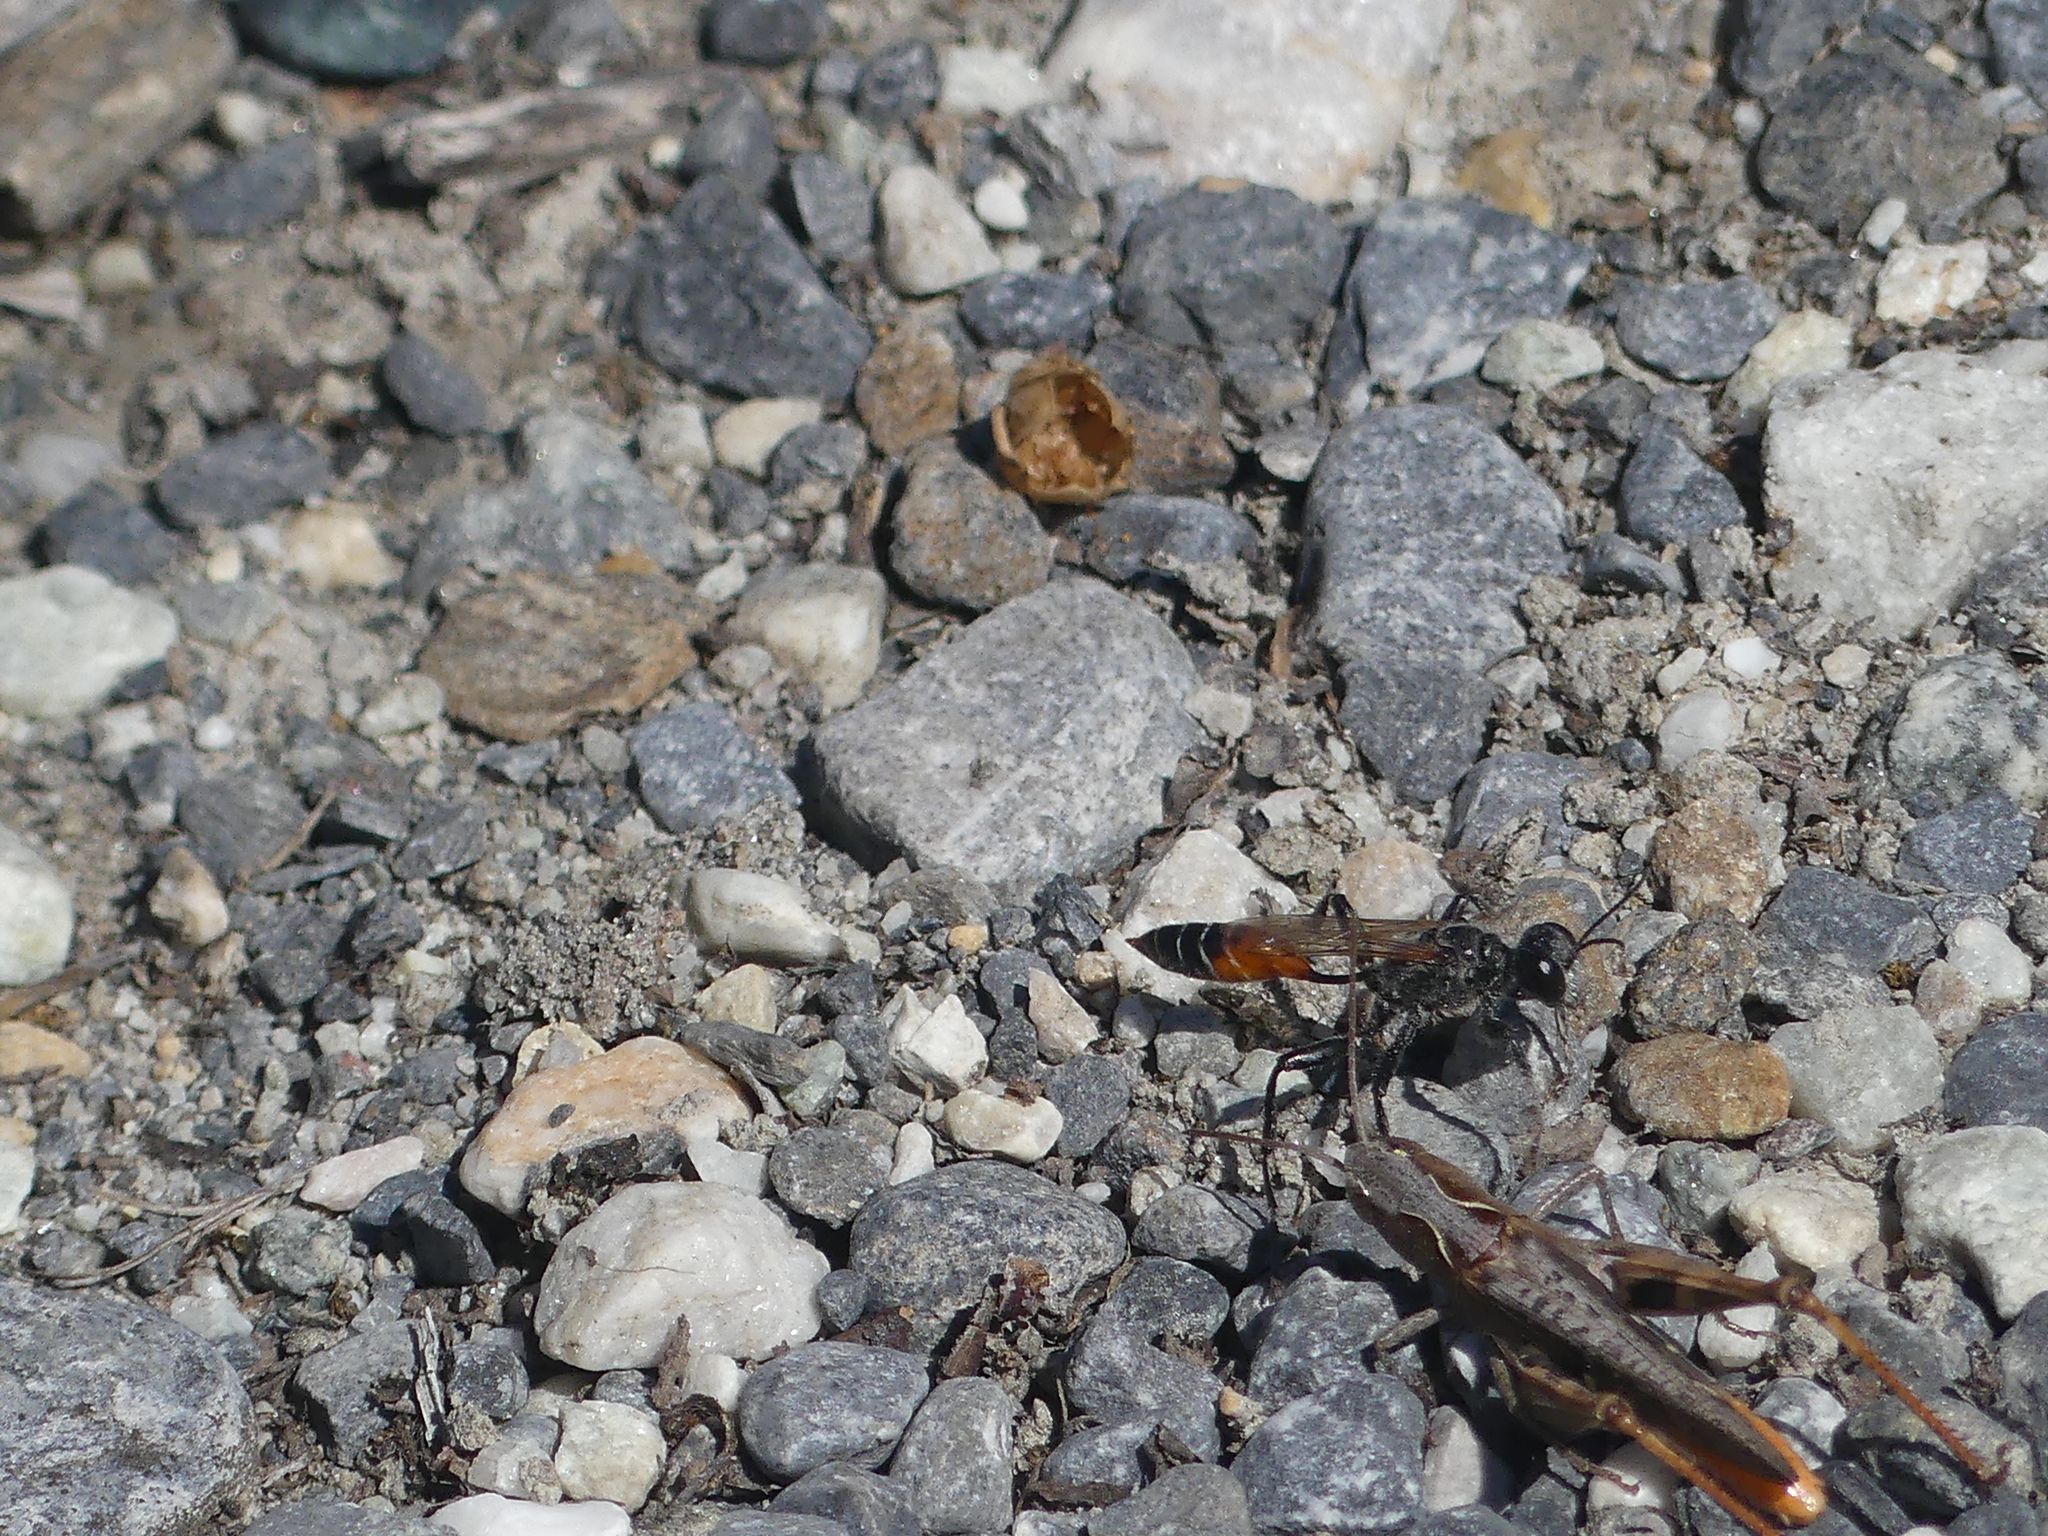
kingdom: Animalia
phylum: Arthropoda
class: Insecta
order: Hymenoptera
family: Sphecidae
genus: Prionyx
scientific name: Prionyx kirbii
